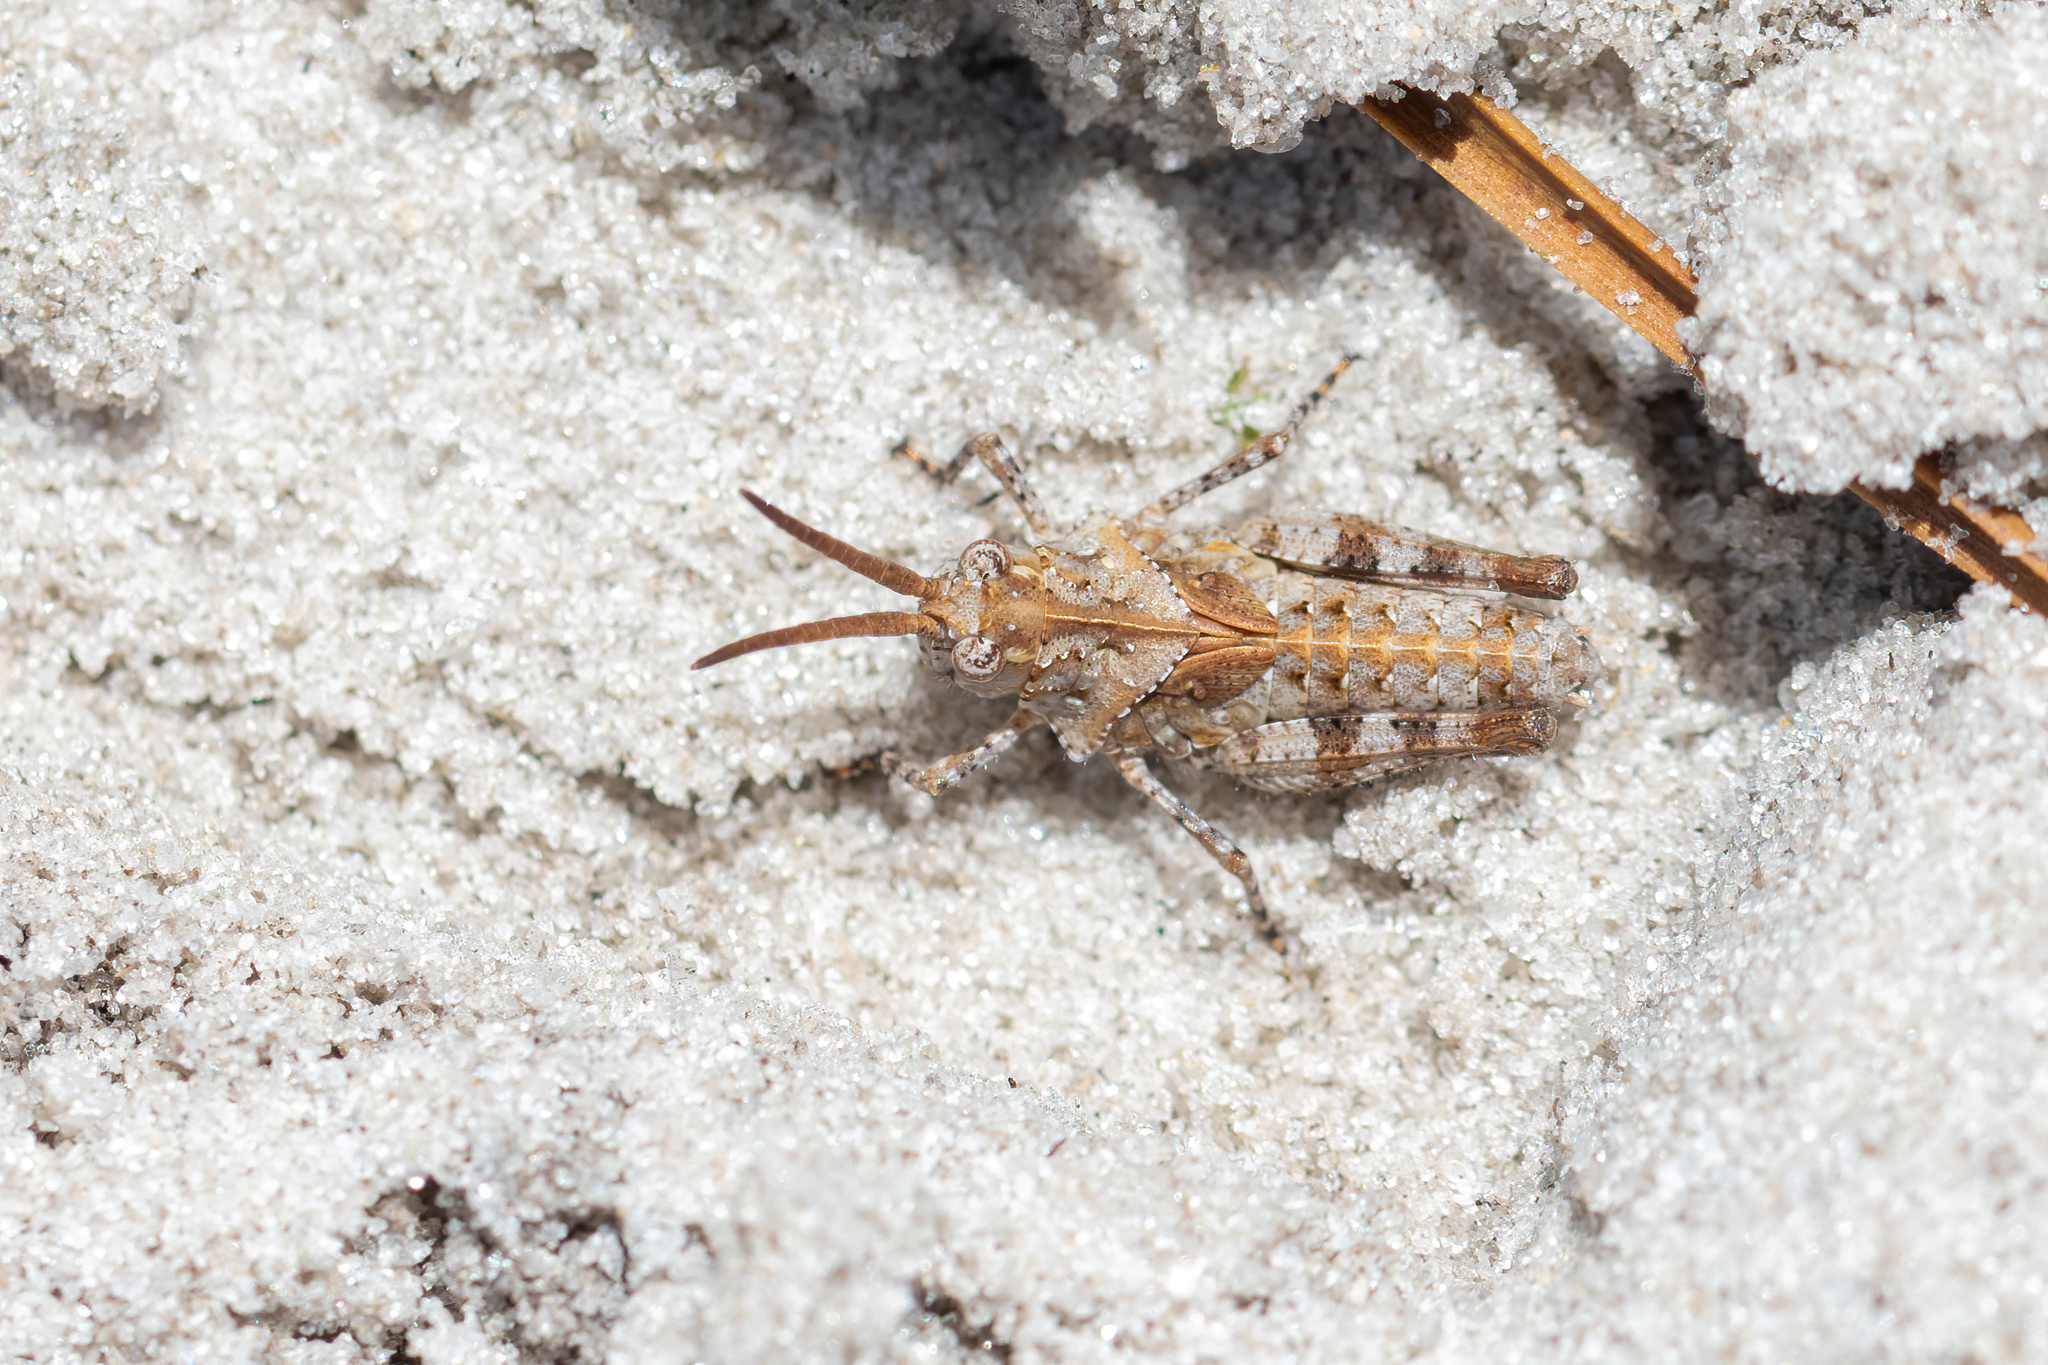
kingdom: Animalia
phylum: Arthropoda
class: Insecta
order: Orthoptera
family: Acrididae
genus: Psinidia
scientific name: Psinidia fenestralis
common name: Long-horned locust
